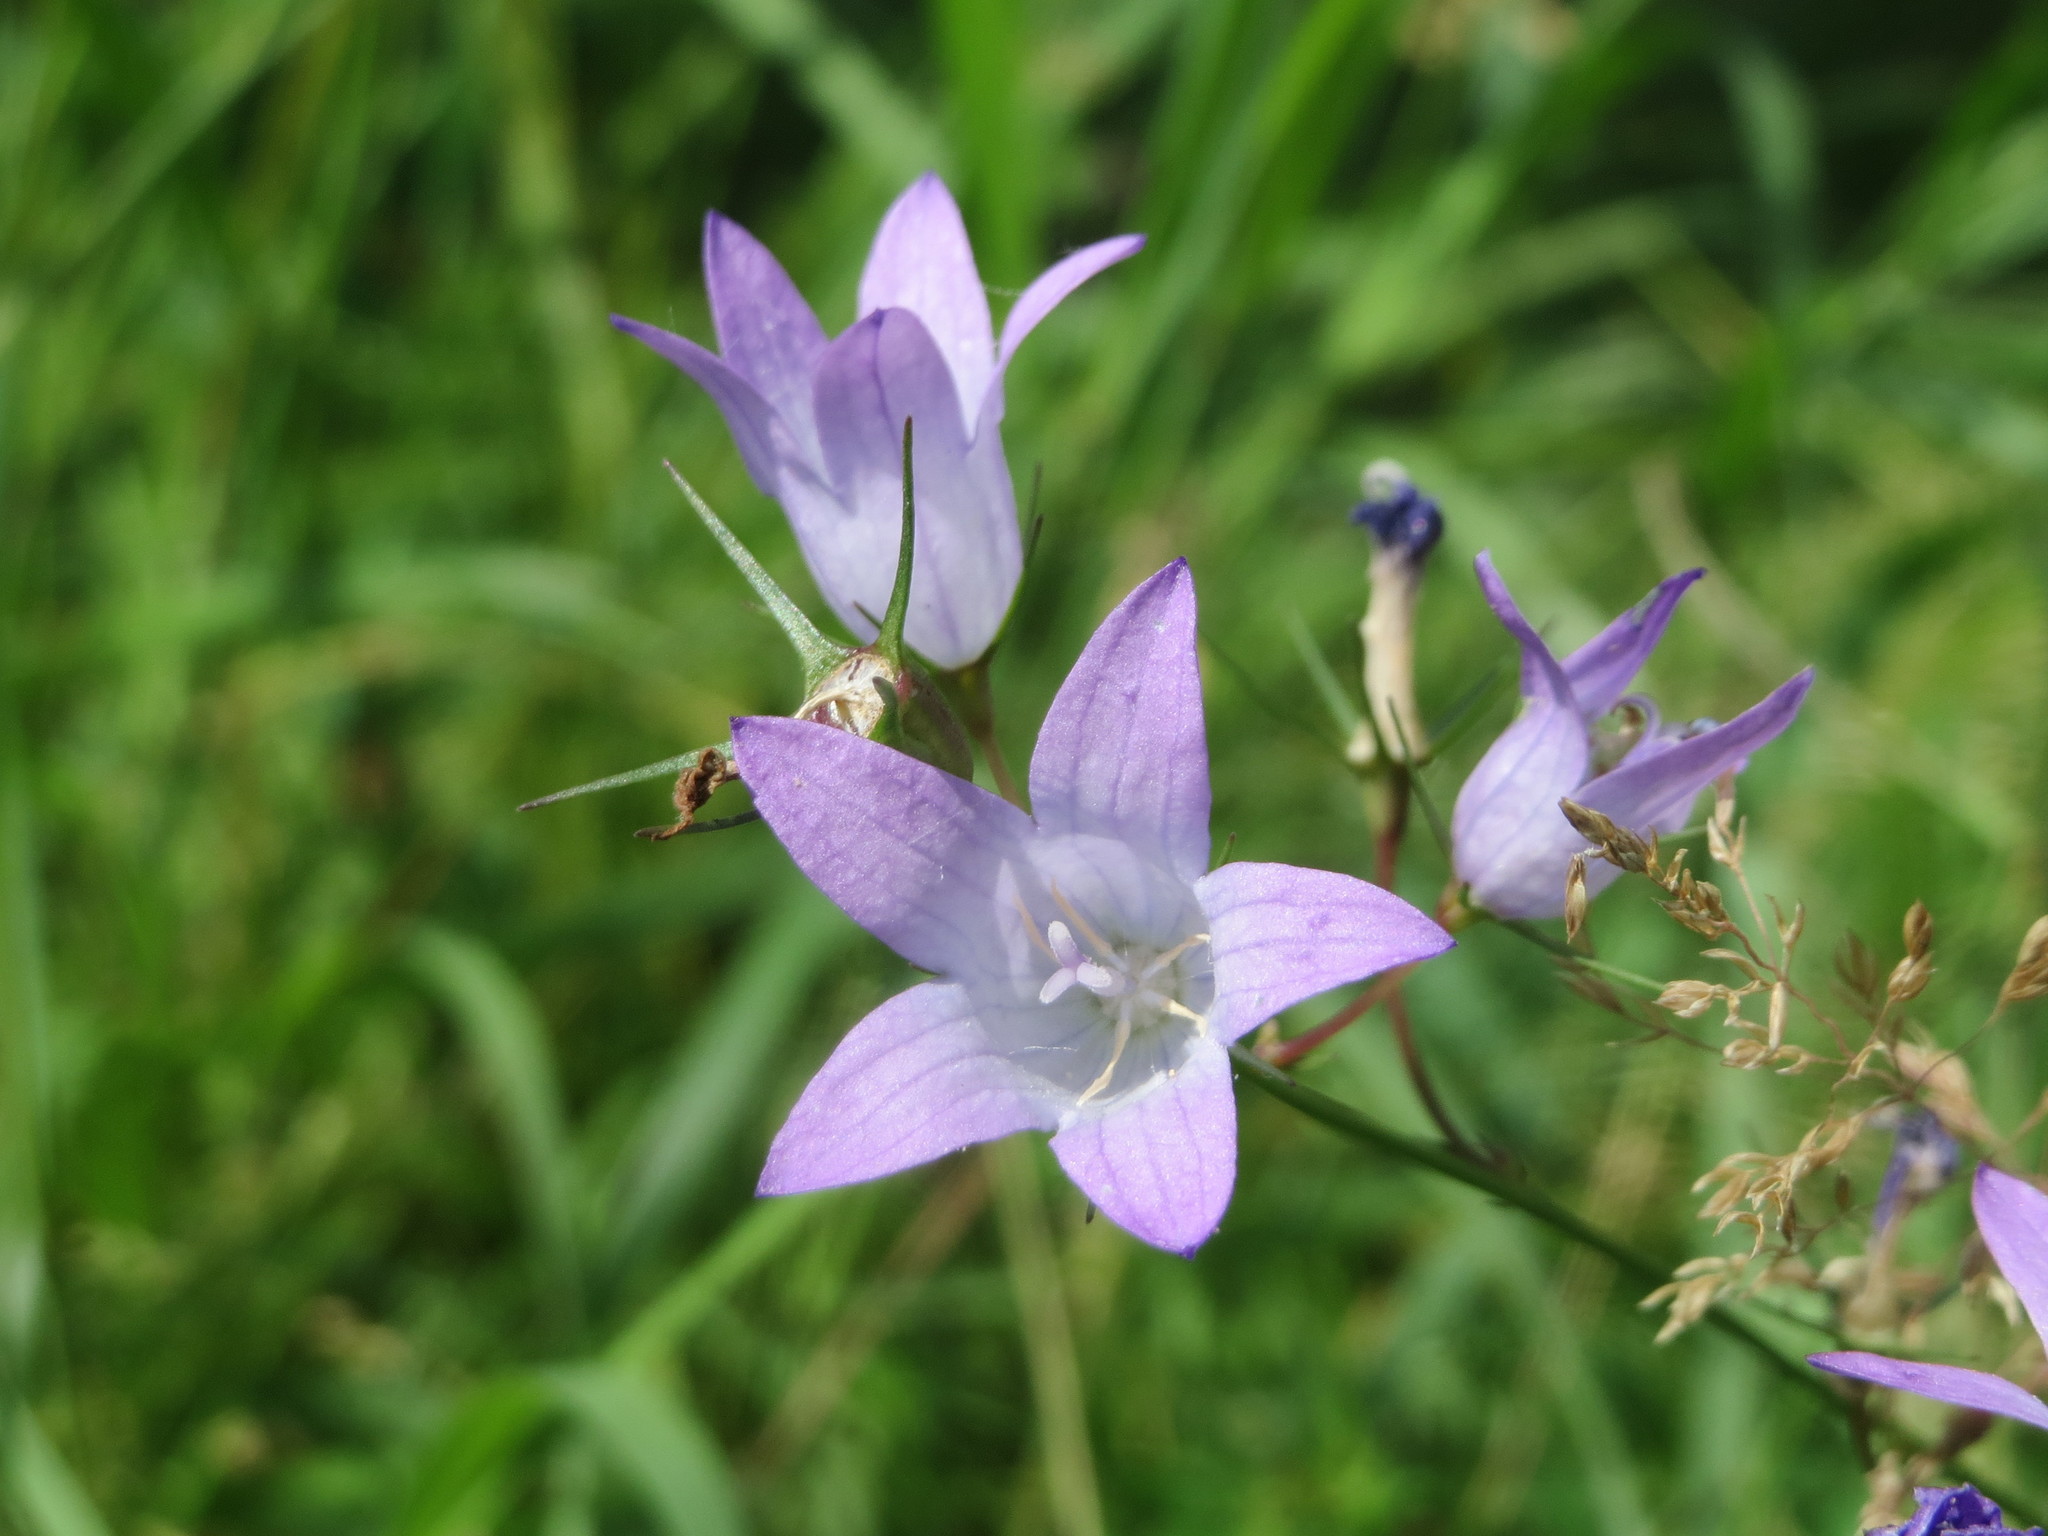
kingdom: Plantae
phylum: Tracheophyta
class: Magnoliopsida
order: Asterales
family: Campanulaceae
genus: Campanula
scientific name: Campanula rapunculus
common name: Rampion bellflower
